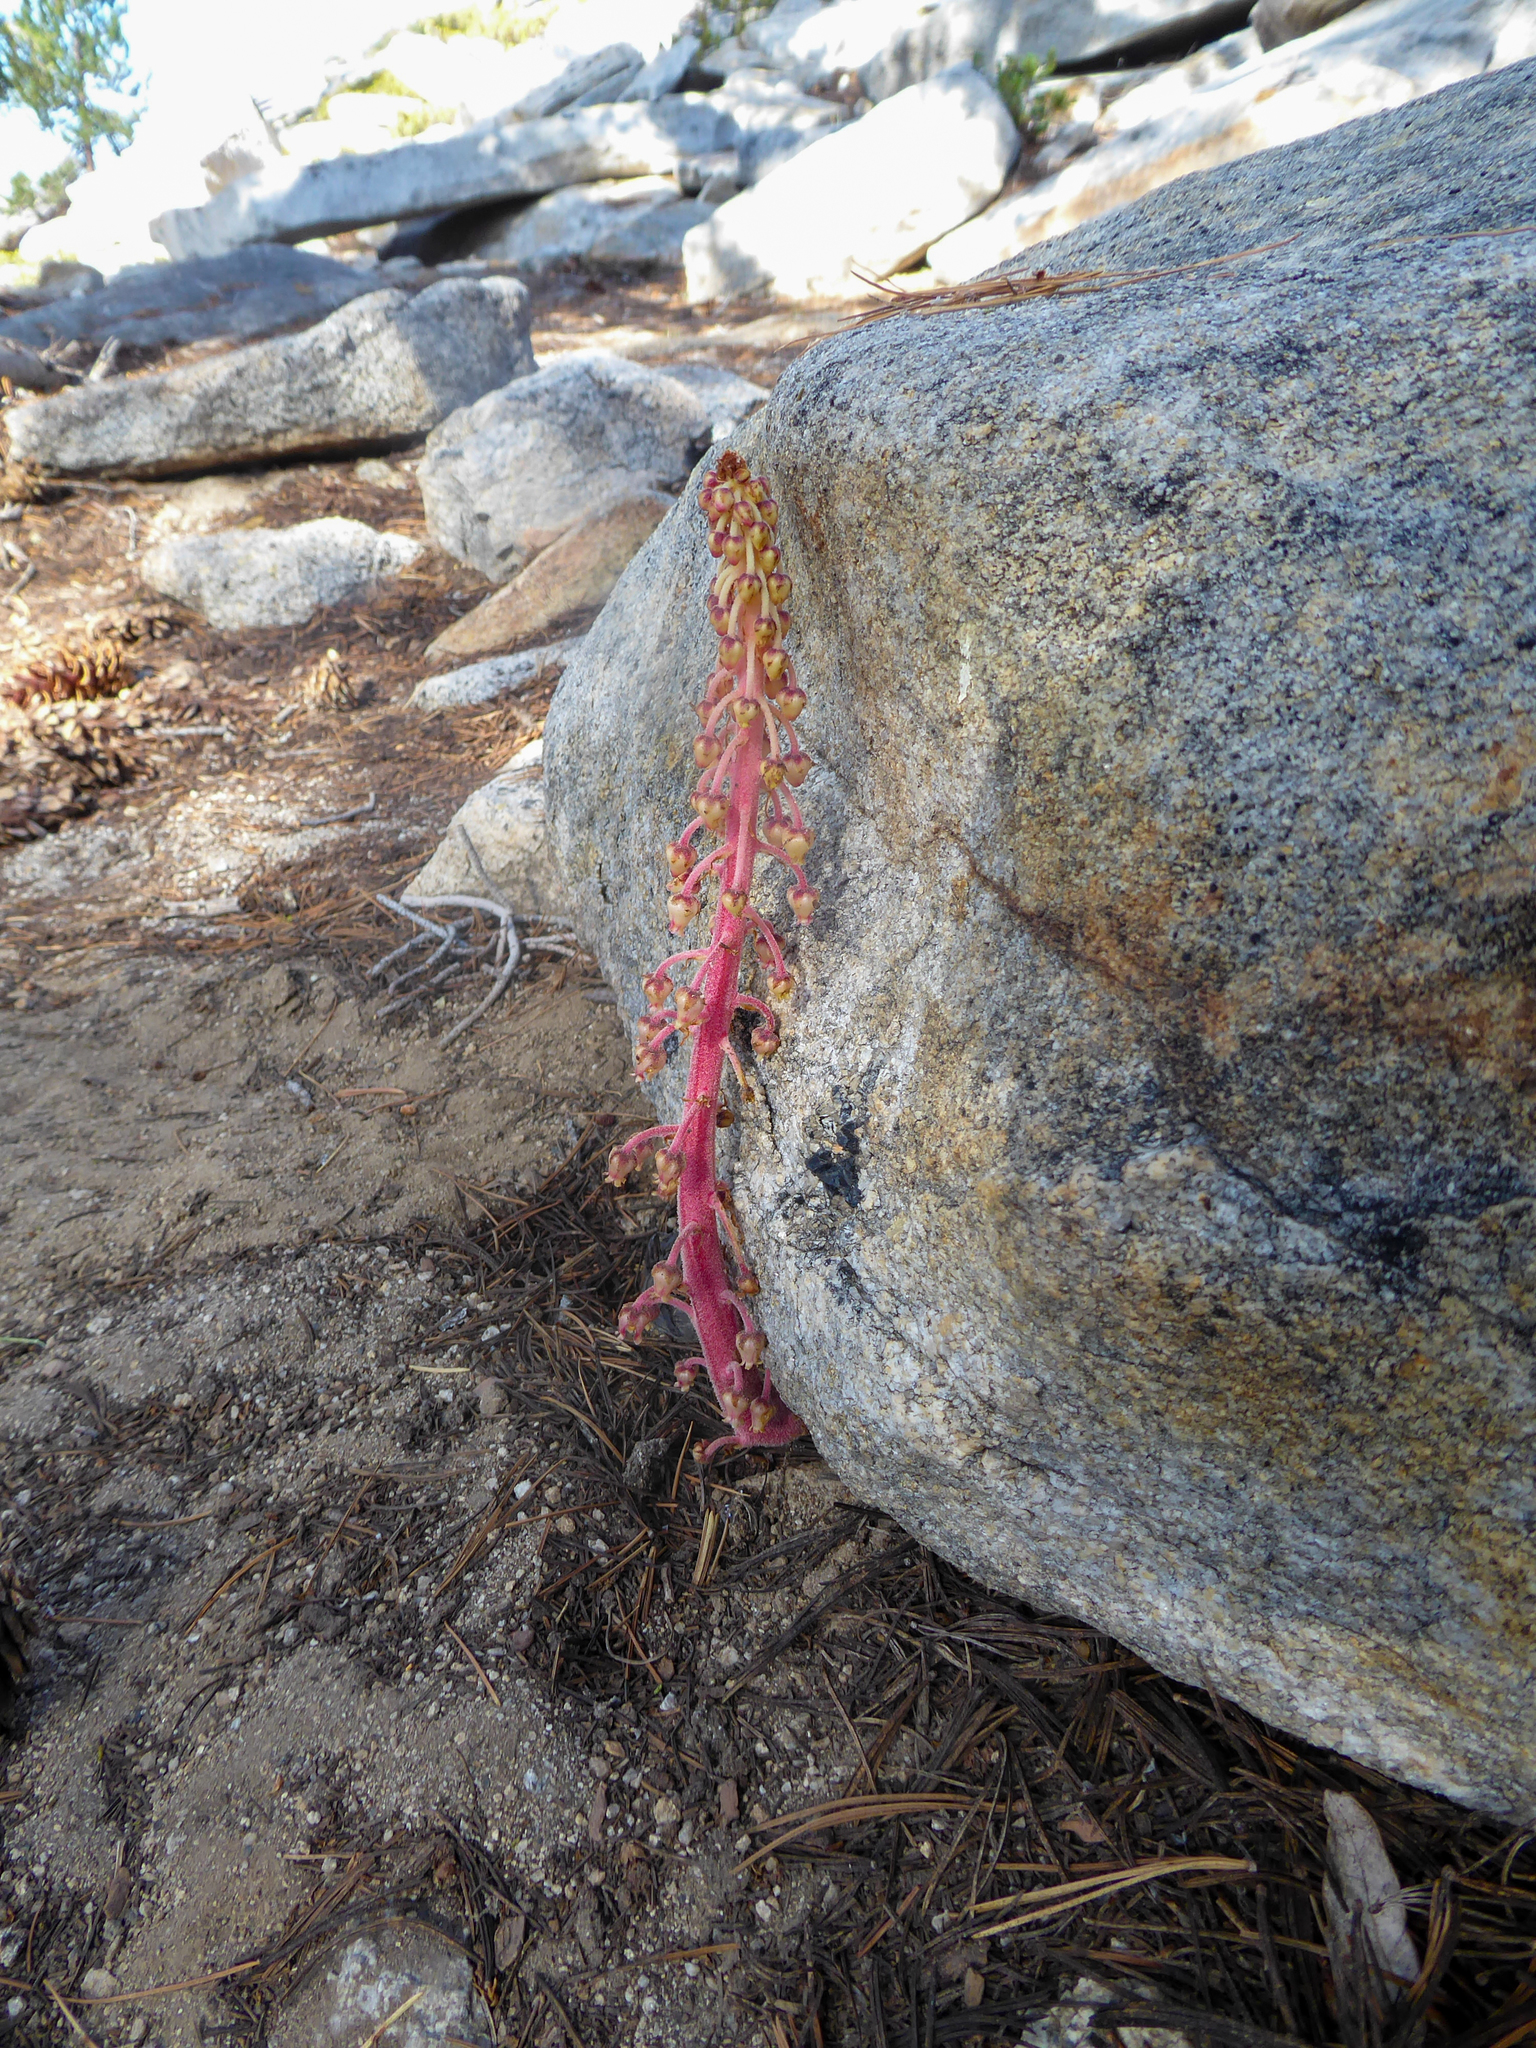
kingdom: Plantae
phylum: Tracheophyta
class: Magnoliopsida
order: Ericales
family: Ericaceae
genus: Pterospora
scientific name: Pterospora andromedea
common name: Giant bird's-nest
